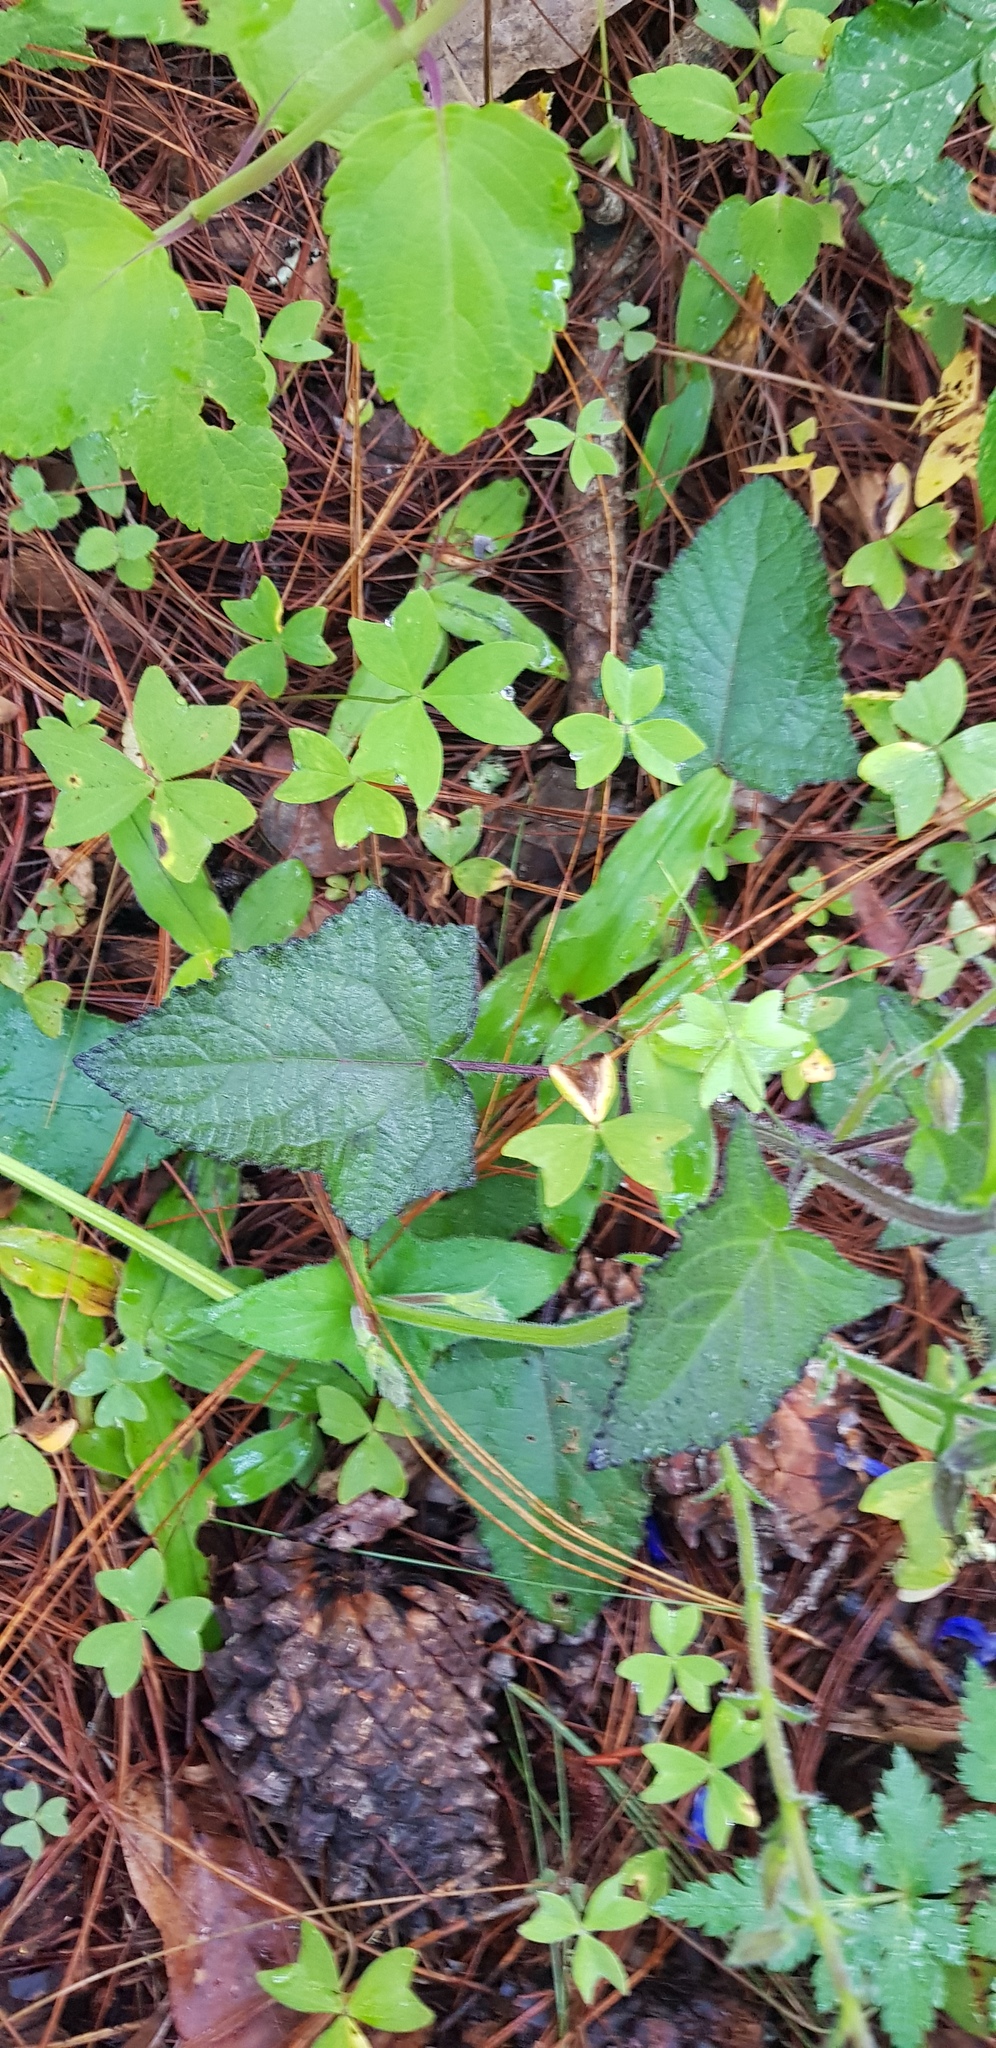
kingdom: Plantae
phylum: Tracheophyta
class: Magnoliopsida
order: Lamiales
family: Lamiaceae
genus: Salvia
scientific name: Salvia patens
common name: Blue sage
